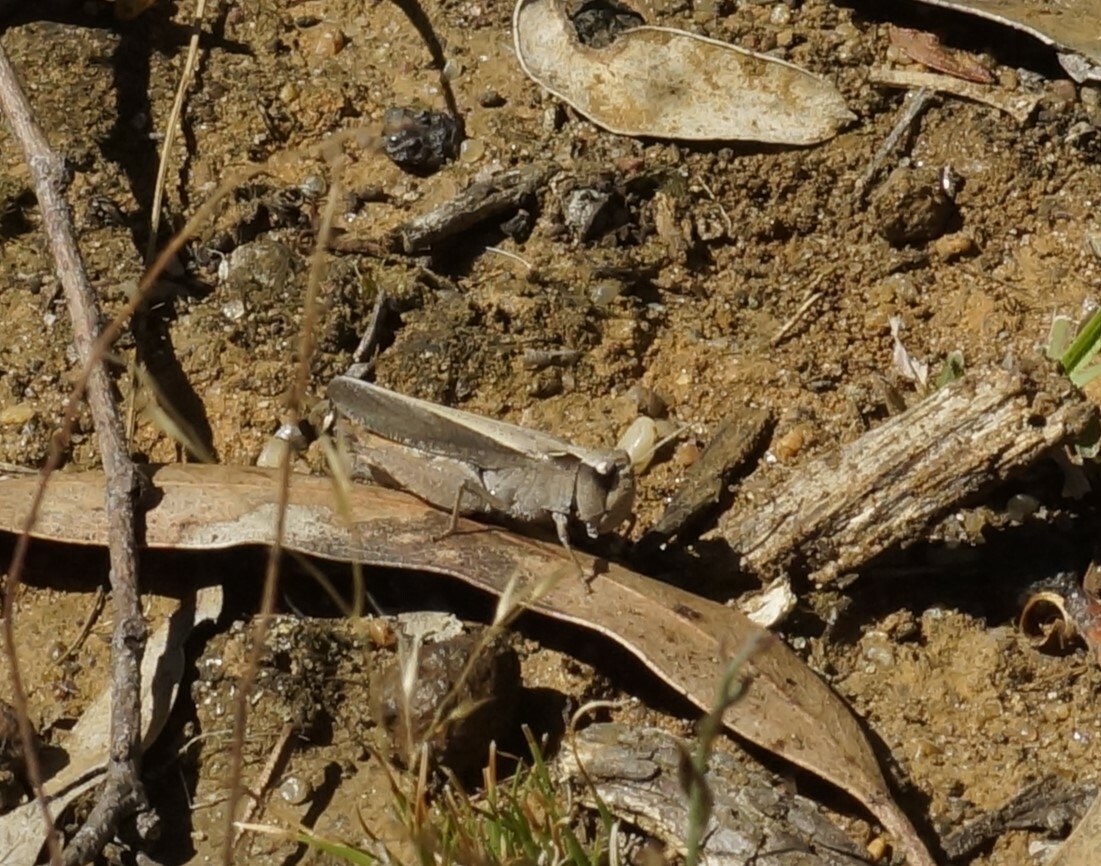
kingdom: Animalia
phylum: Arthropoda
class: Insecta
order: Orthoptera
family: Acrididae
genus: Cryptobothrus
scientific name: Cryptobothrus chrysophorus
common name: Golden bandwing
